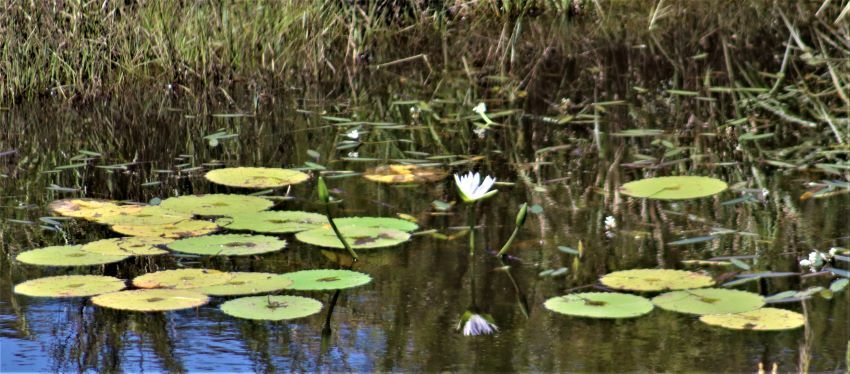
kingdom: Plantae
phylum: Tracheophyta
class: Magnoliopsida
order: Nymphaeales
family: Nymphaeaceae
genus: Nymphaea
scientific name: Nymphaea nouchali
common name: Blue lotus
